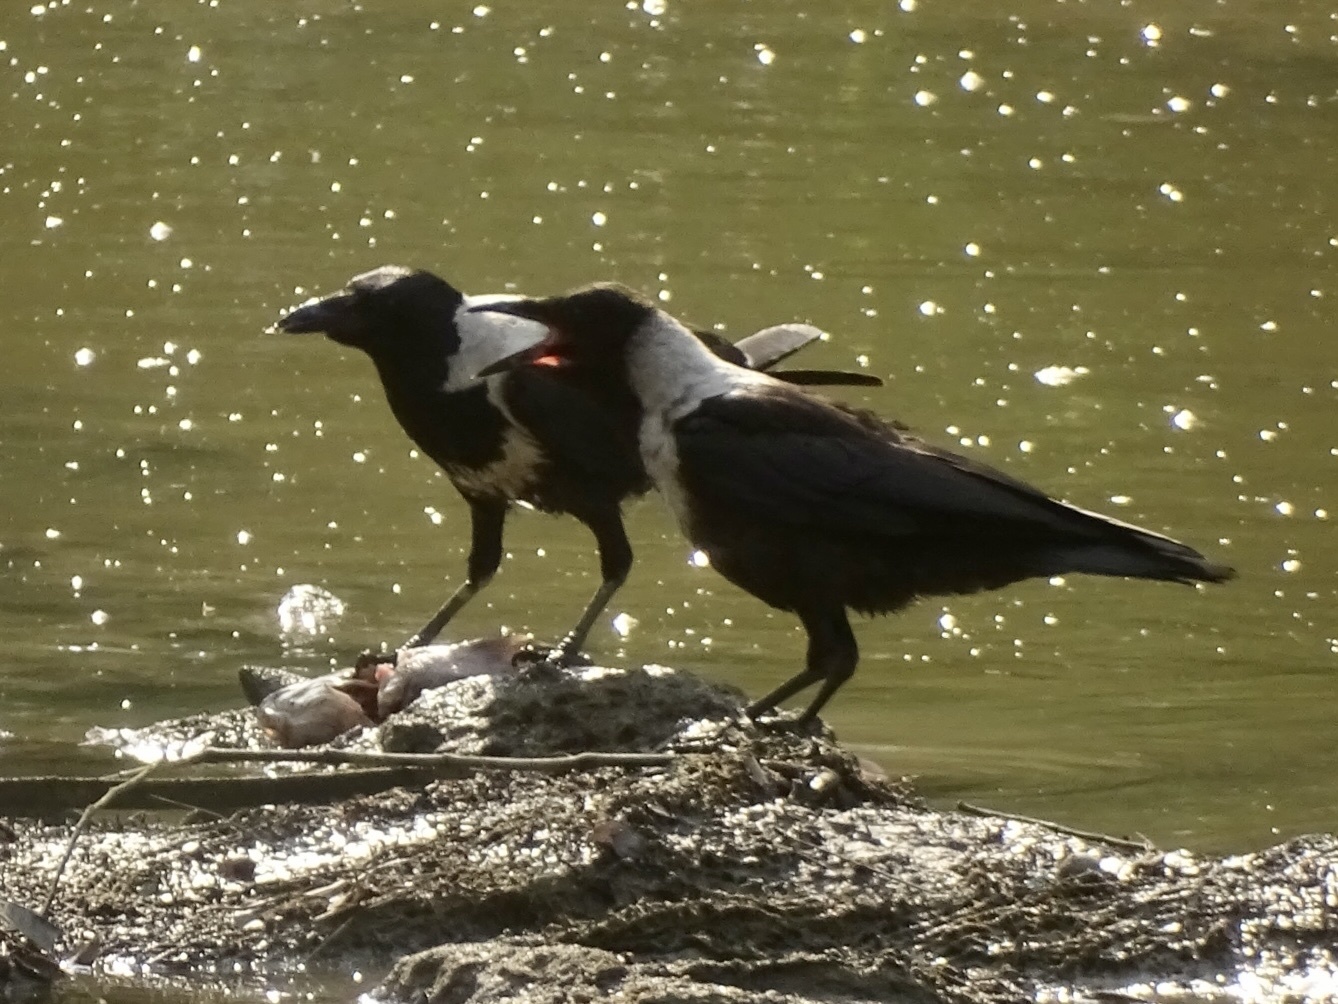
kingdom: Animalia
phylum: Chordata
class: Aves
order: Passeriformes
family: Corvidae
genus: Corvus
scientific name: Corvus pectoralis
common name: Collared crow
